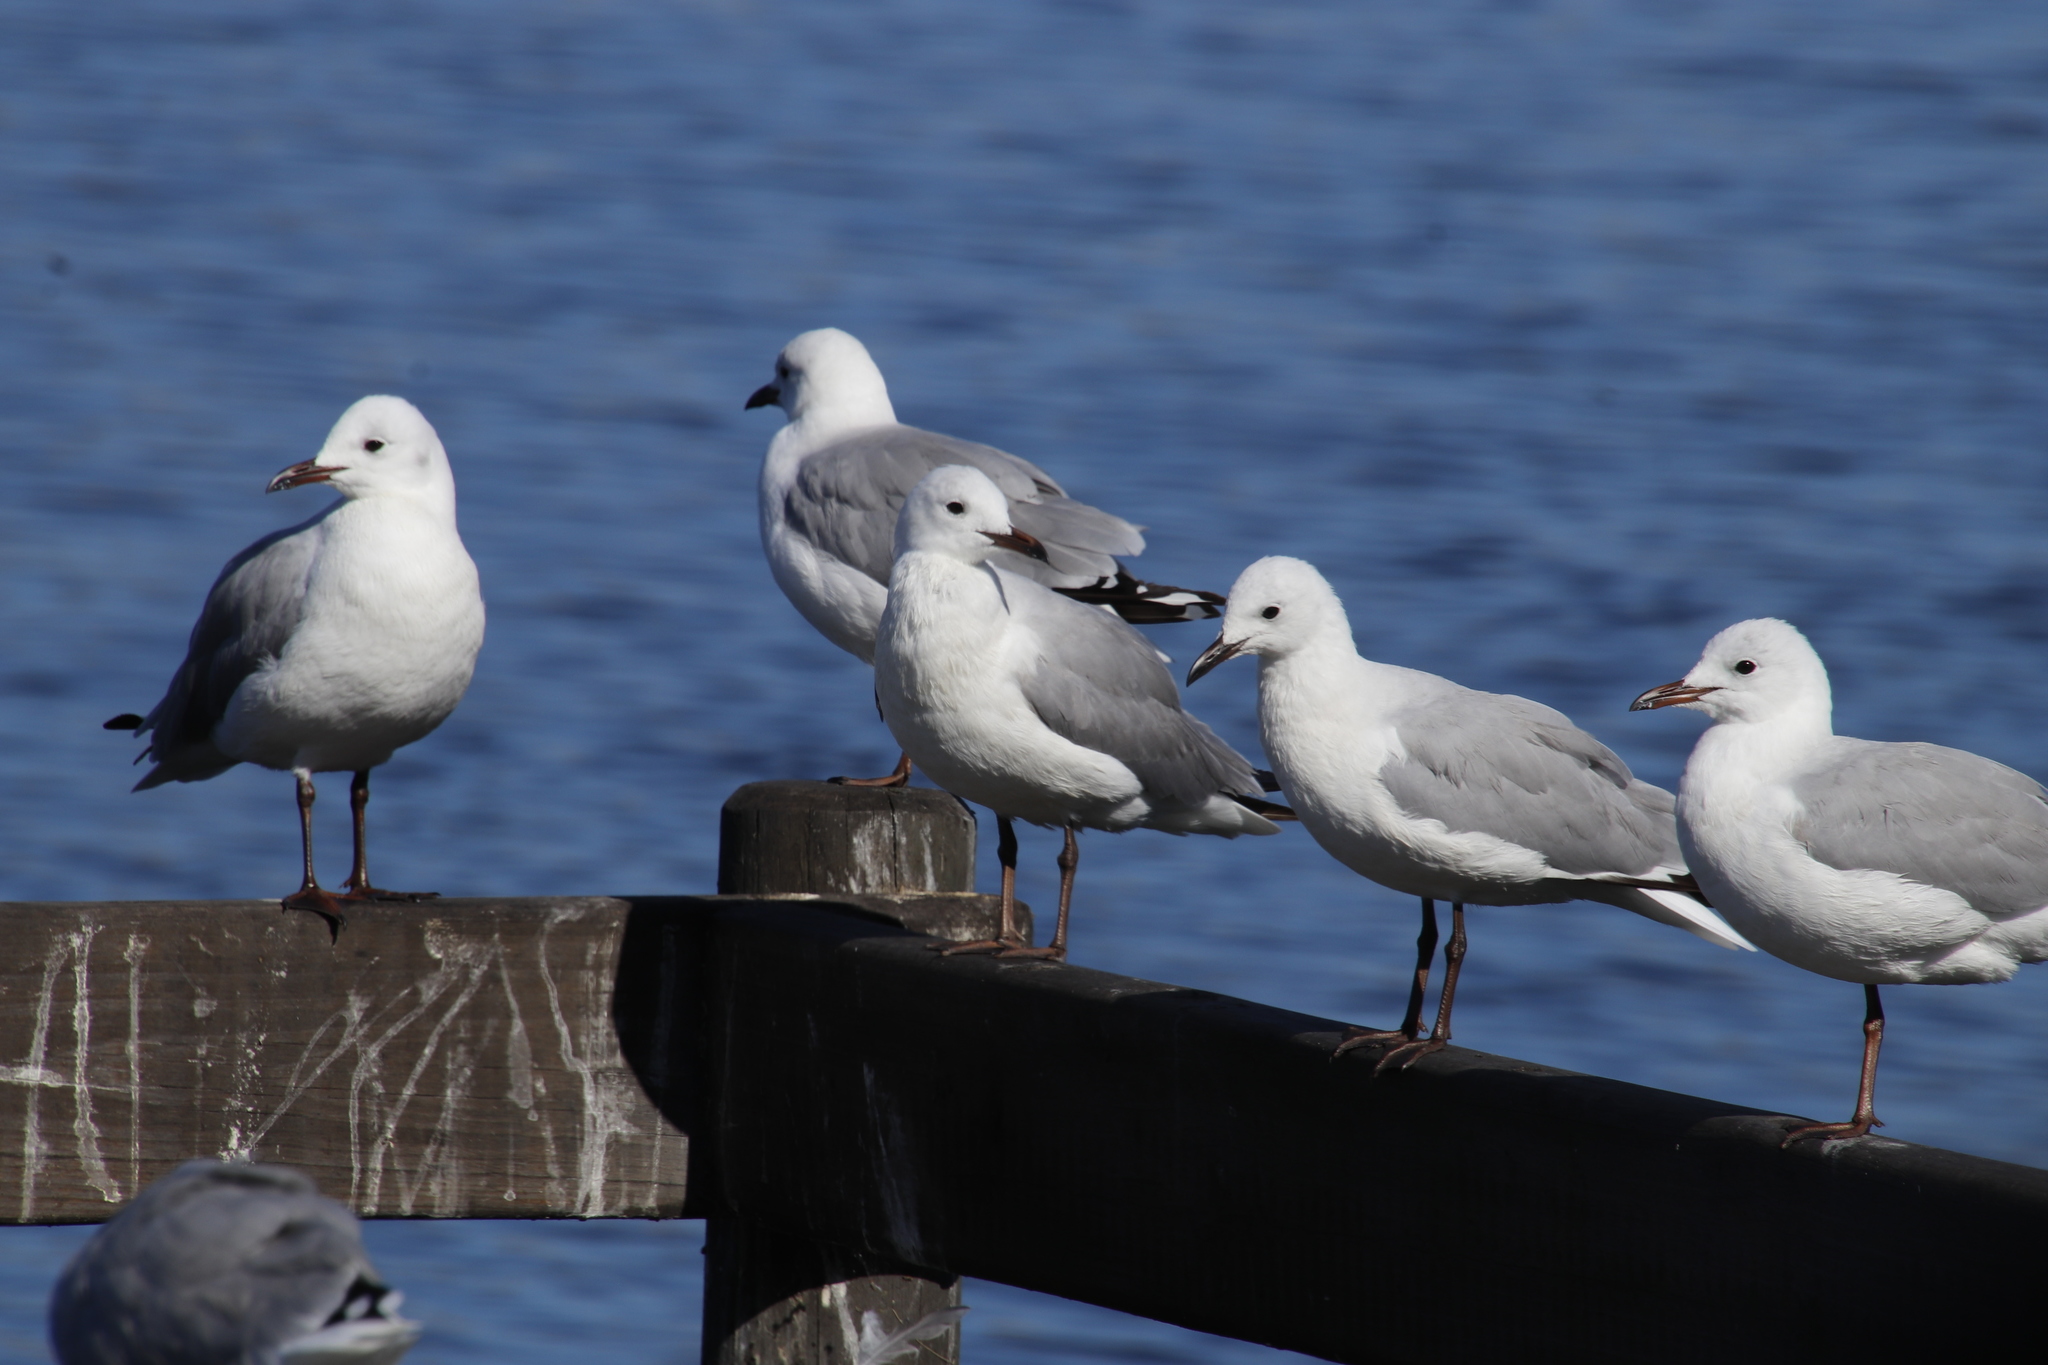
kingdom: Animalia
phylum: Chordata
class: Aves
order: Charadriiformes
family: Laridae
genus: Chroicocephalus
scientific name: Chroicocephalus hartlaubii
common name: Hartlaub's gull
